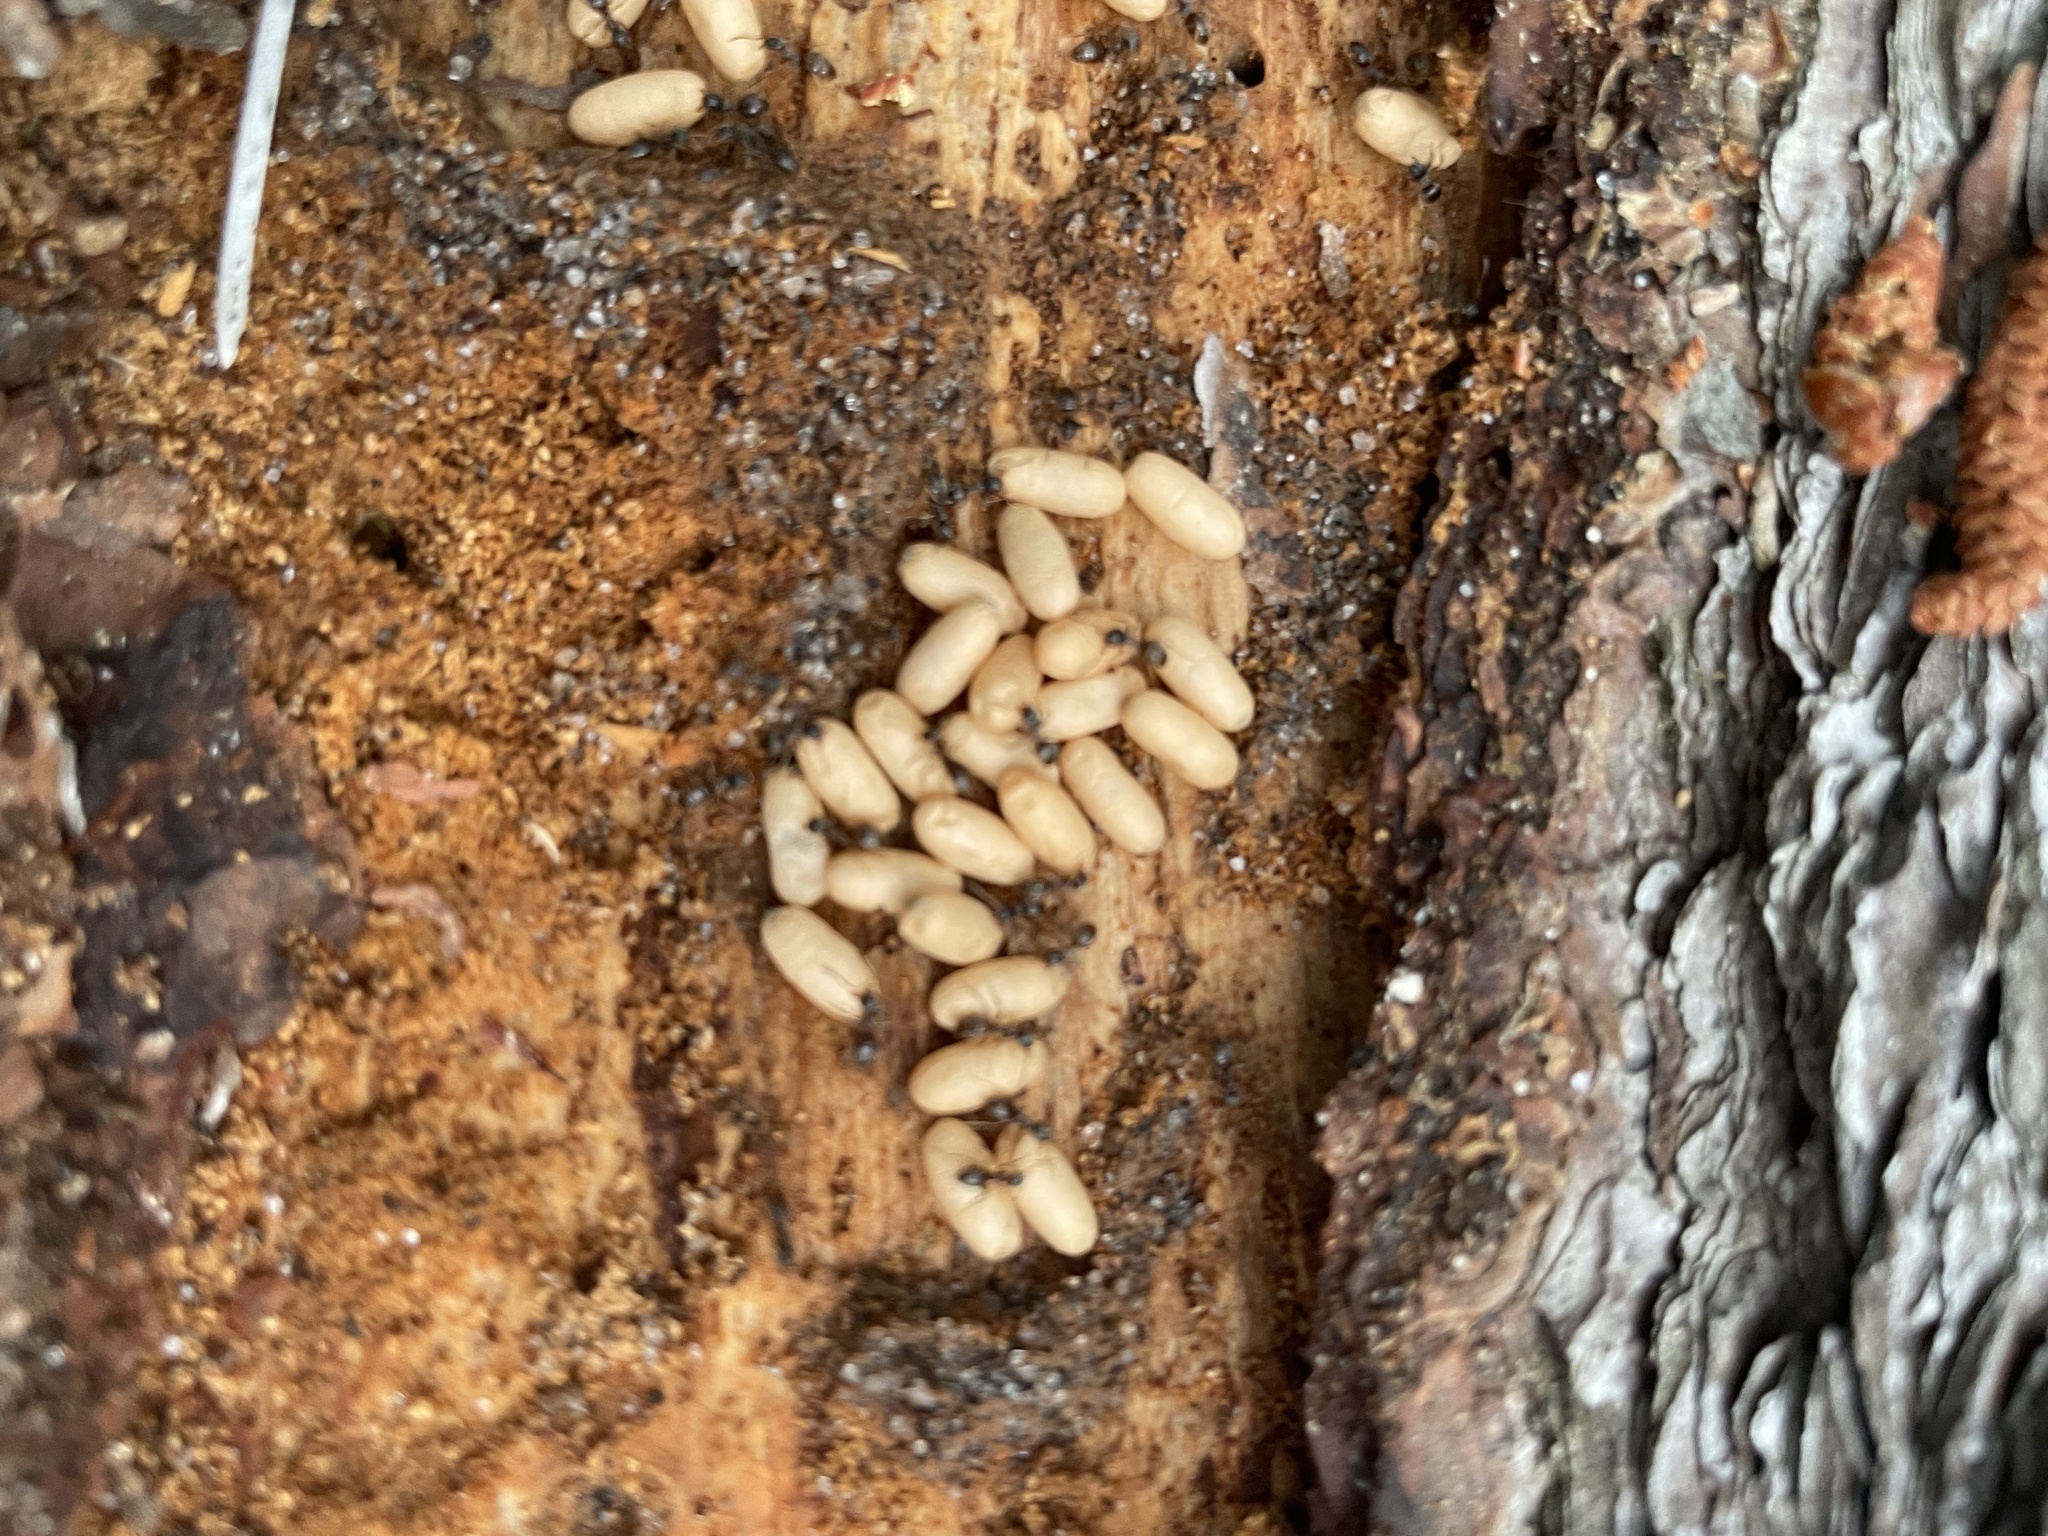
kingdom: Animalia
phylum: Arthropoda
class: Insecta
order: Hymenoptera
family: Formicidae
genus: Lasius
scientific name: Lasius americanus
